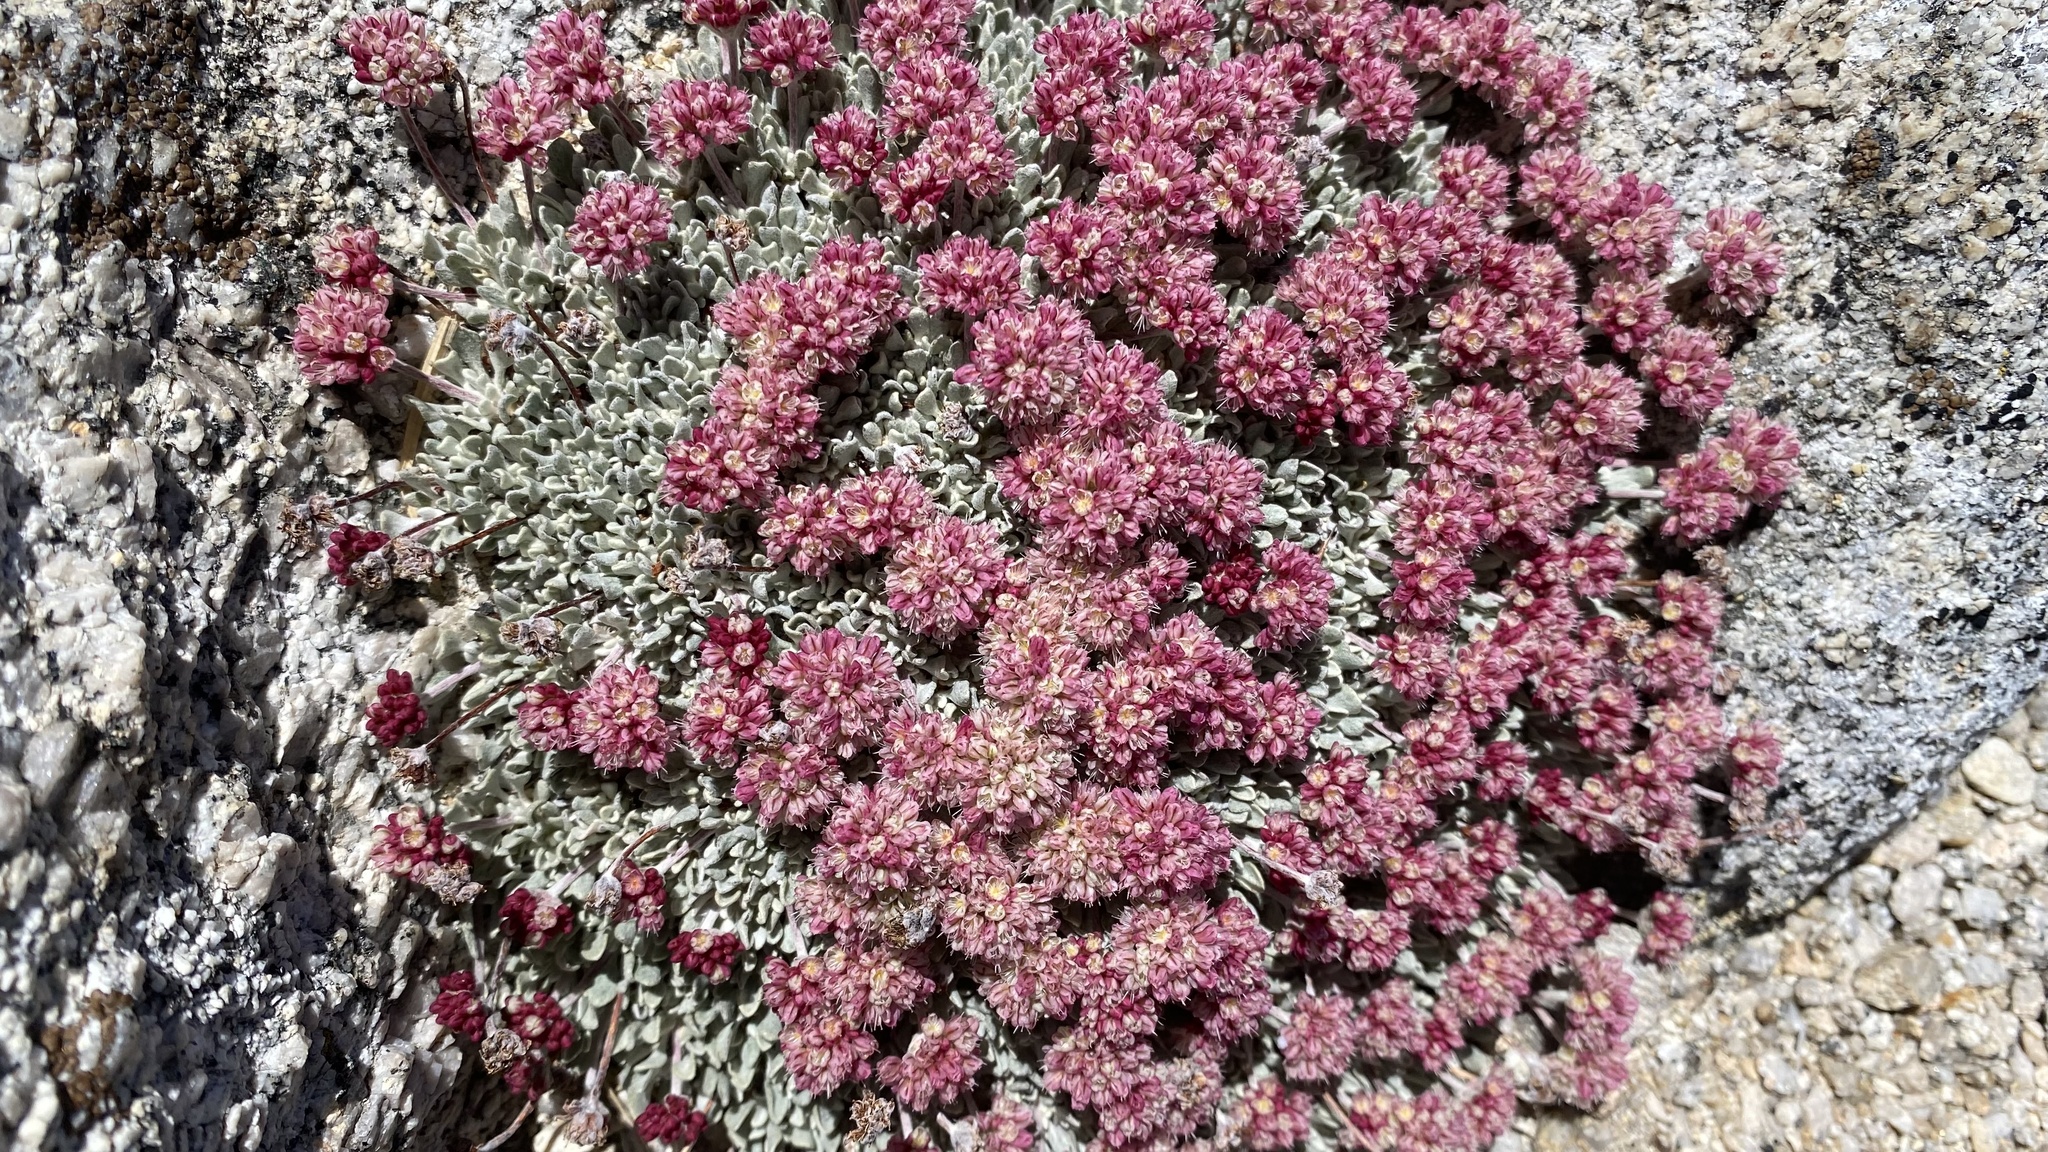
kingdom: Plantae
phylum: Tracheophyta
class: Magnoliopsida
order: Caryophyllales
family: Polygonaceae
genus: Eriogonum
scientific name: Eriogonum ovalifolium
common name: Cushion buckwheat
